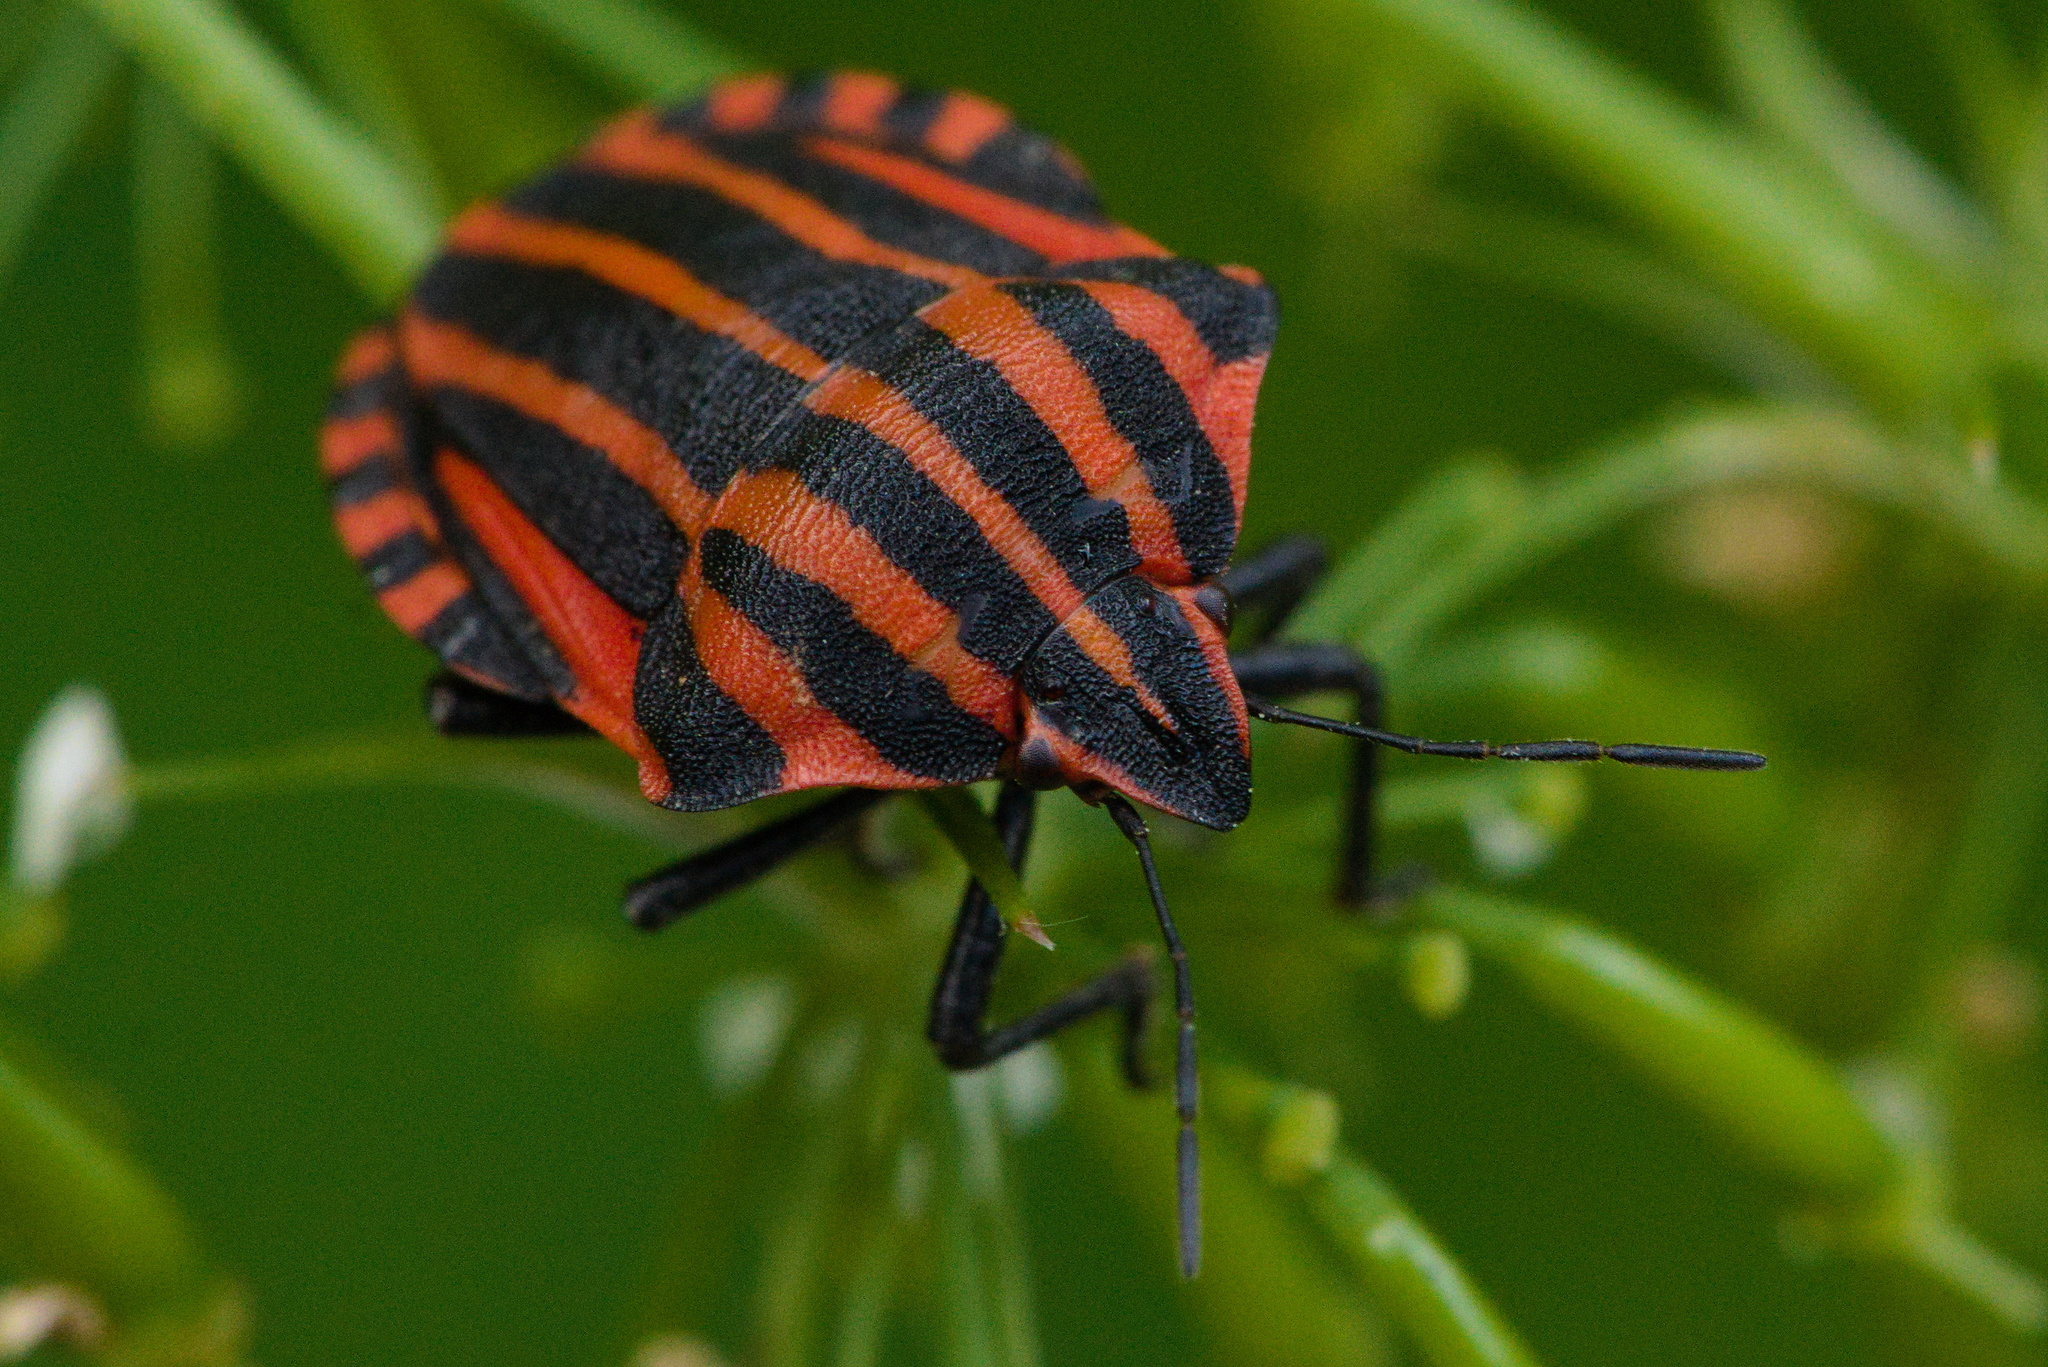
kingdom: Animalia
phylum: Arthropoda
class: Insecta
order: Hemiptera
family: Pentatomidae
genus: Graphosoma
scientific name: Graphosoma italicum
